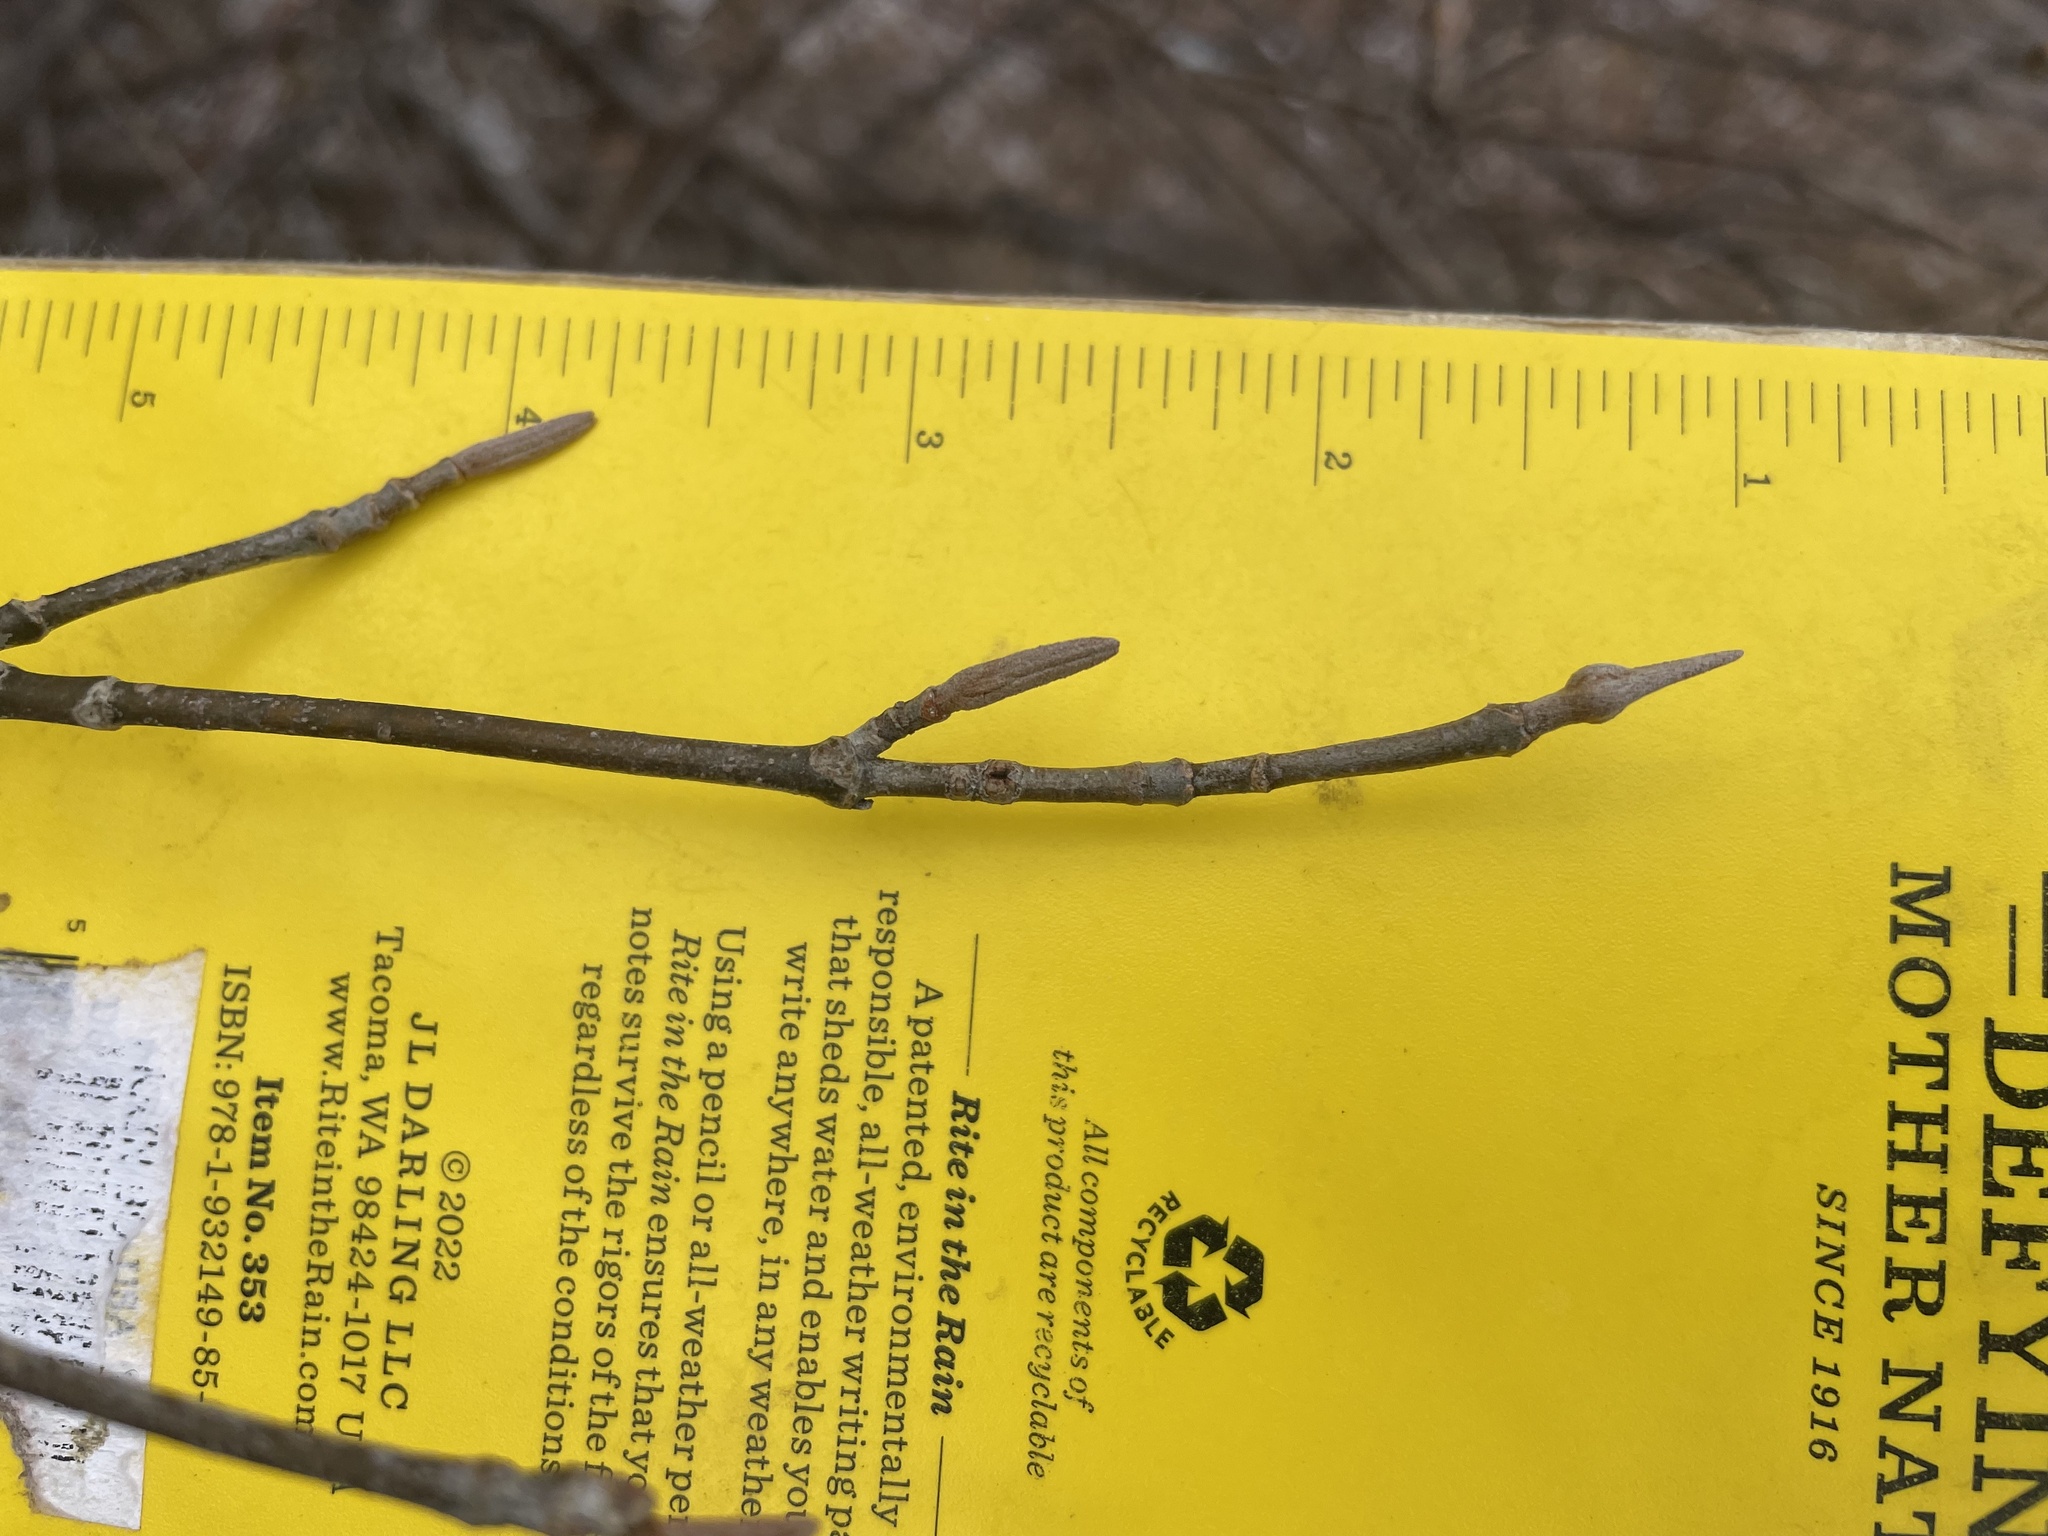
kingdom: Plantae
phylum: Tracheophyta
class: Magnoliopsida
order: Dipsacales
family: Viburnaceae
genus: Viburnum
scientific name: Viburnum cassinoides
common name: Swamp haw
